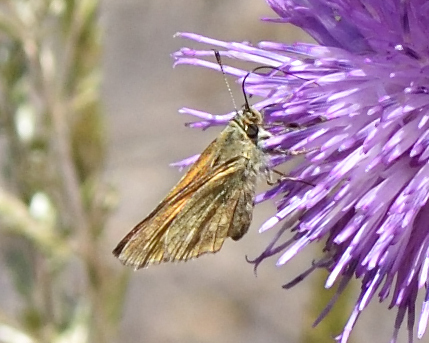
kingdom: Animalia
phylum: Arthropoda
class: Insecta
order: Lepidoptera
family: Hesperiidae
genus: Ochlodes
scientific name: Ochlodes venata
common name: Large skipper
